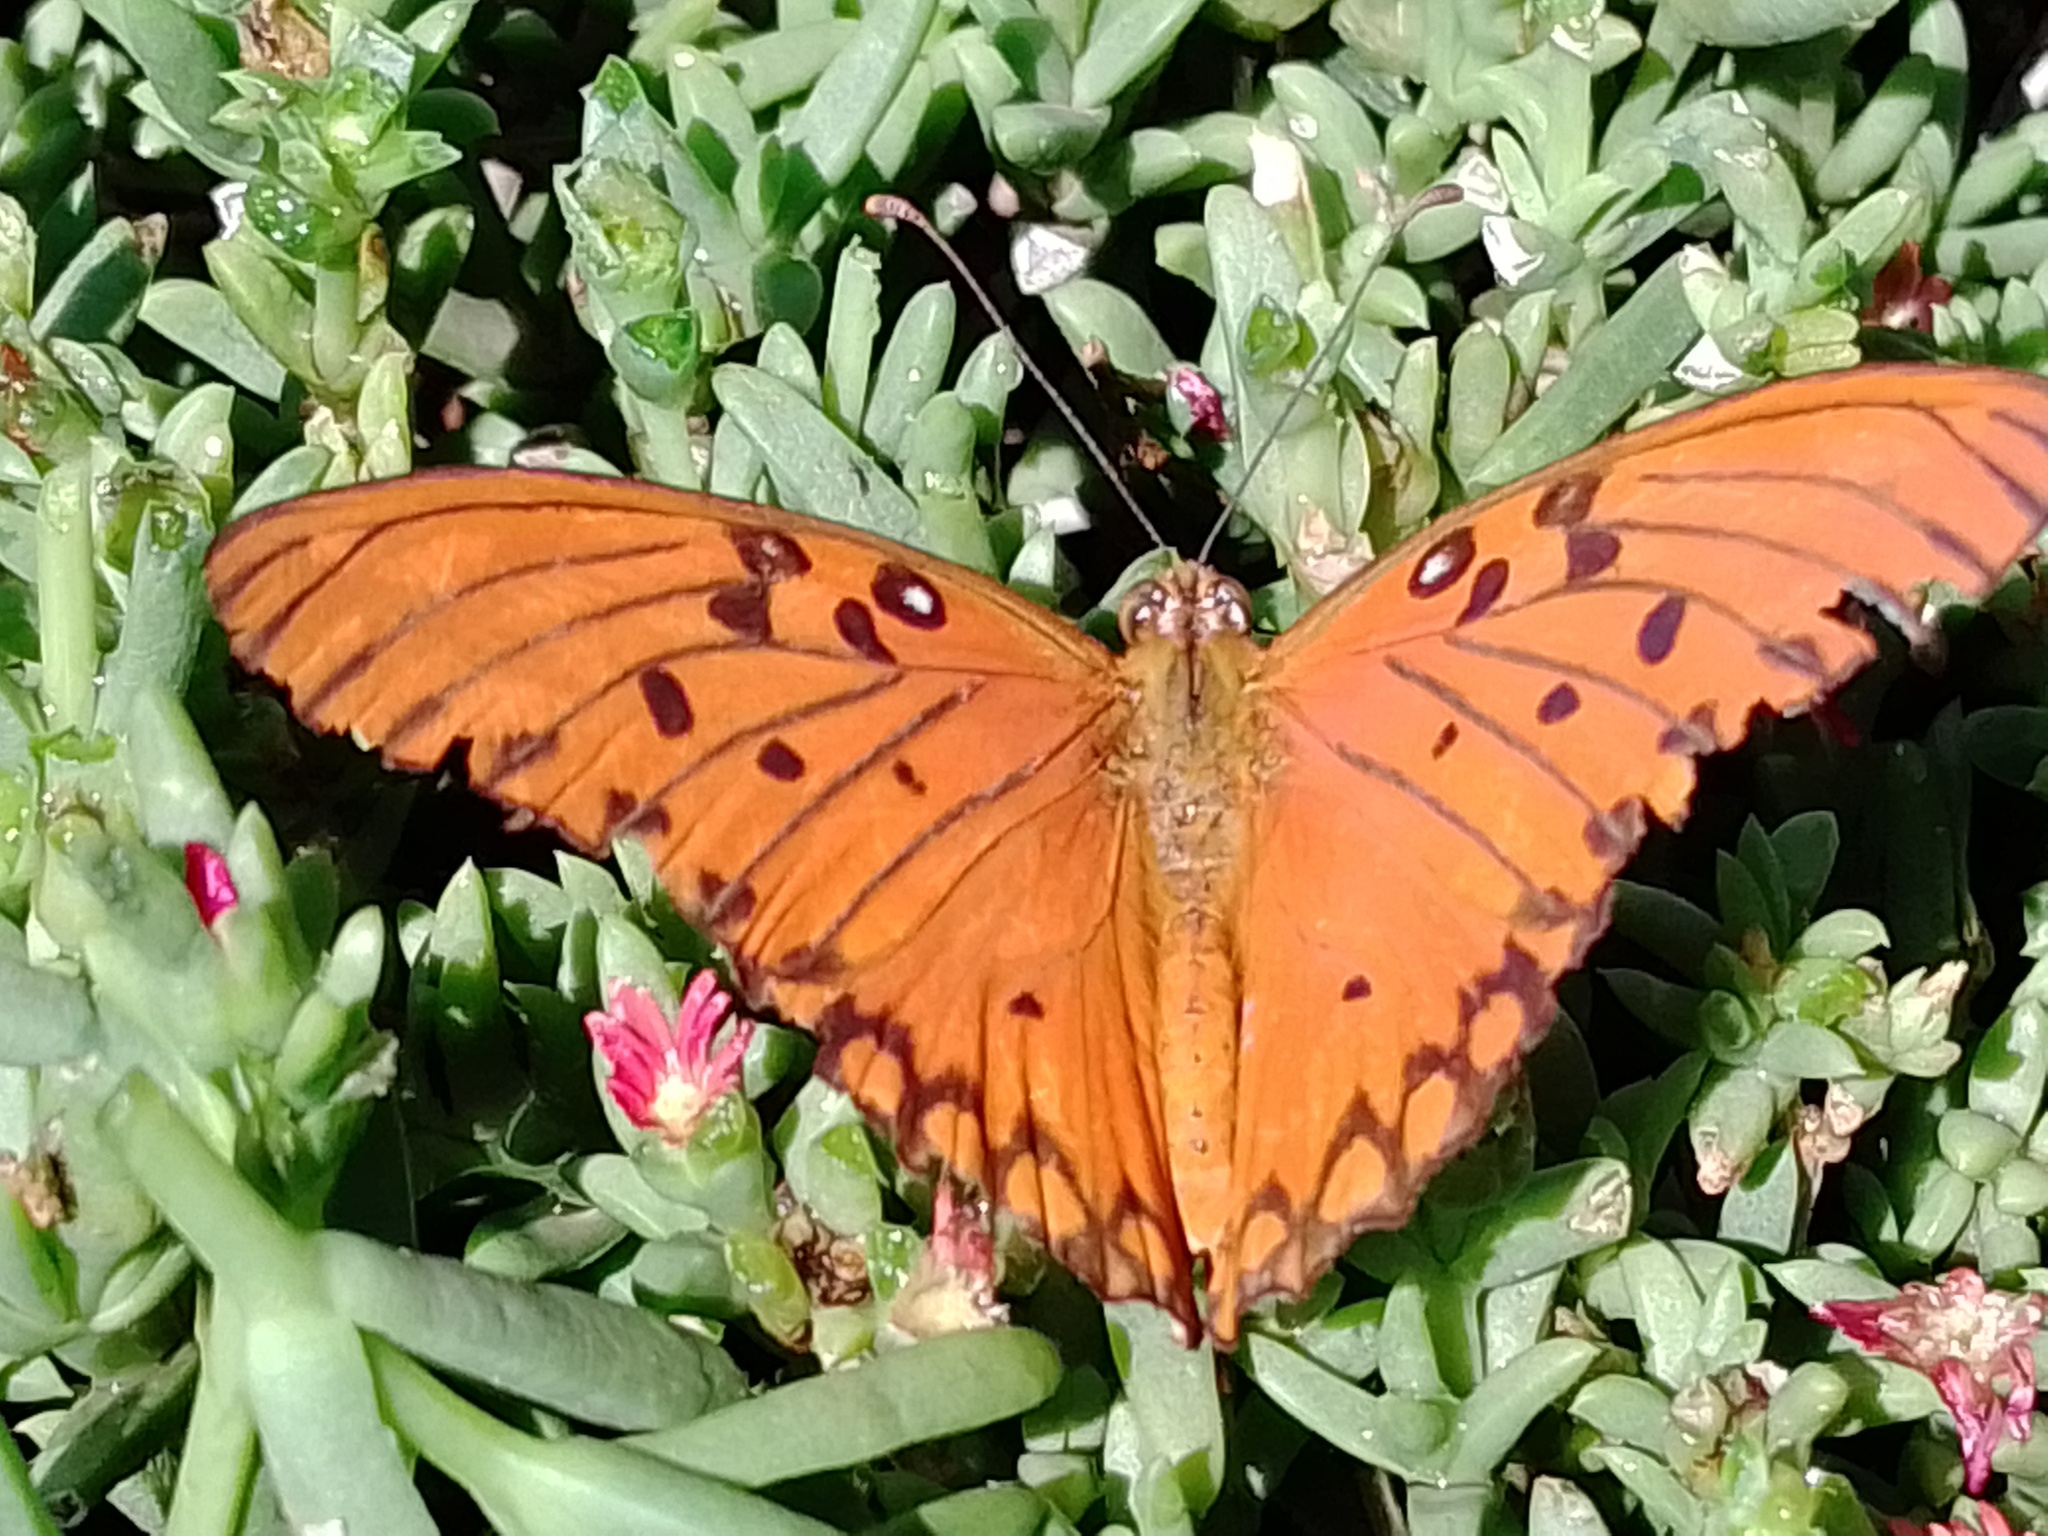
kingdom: Animalia
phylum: Arthropoda
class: Insecta
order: Lepidoptera
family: Nymphalidae
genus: Dione
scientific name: Dione vanillae
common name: Gulf fritillary
